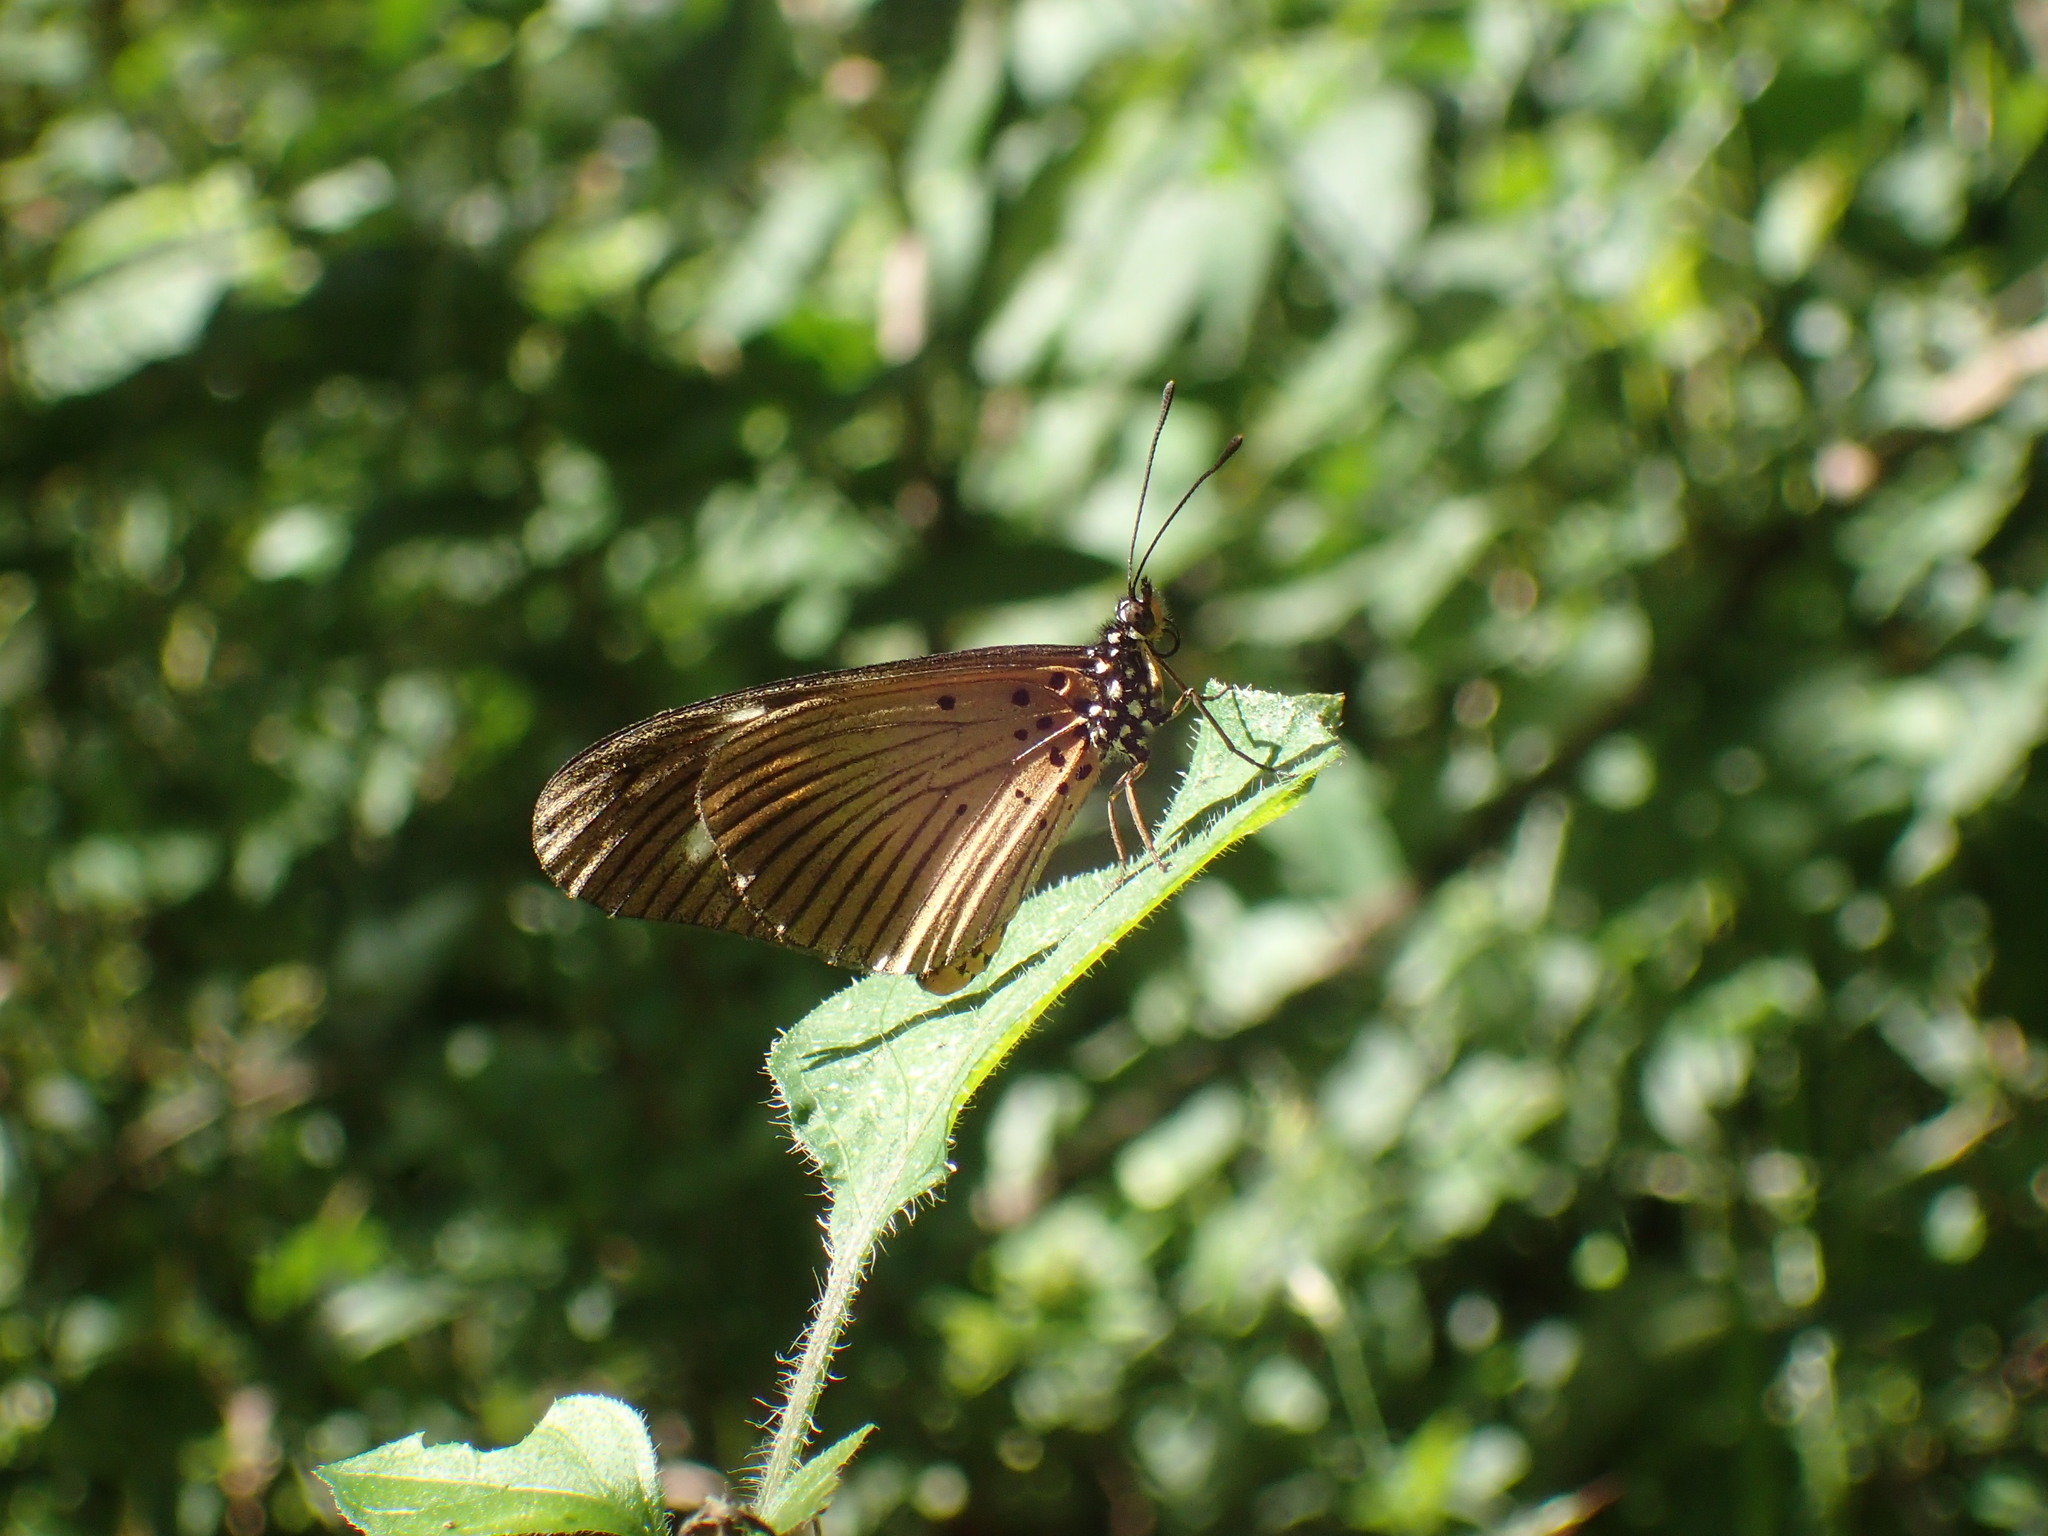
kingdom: Animalia
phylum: Arthropoda
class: Insecta
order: Lepidoptera
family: Nymphalidae
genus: Acraea
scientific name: Acraea esebria
